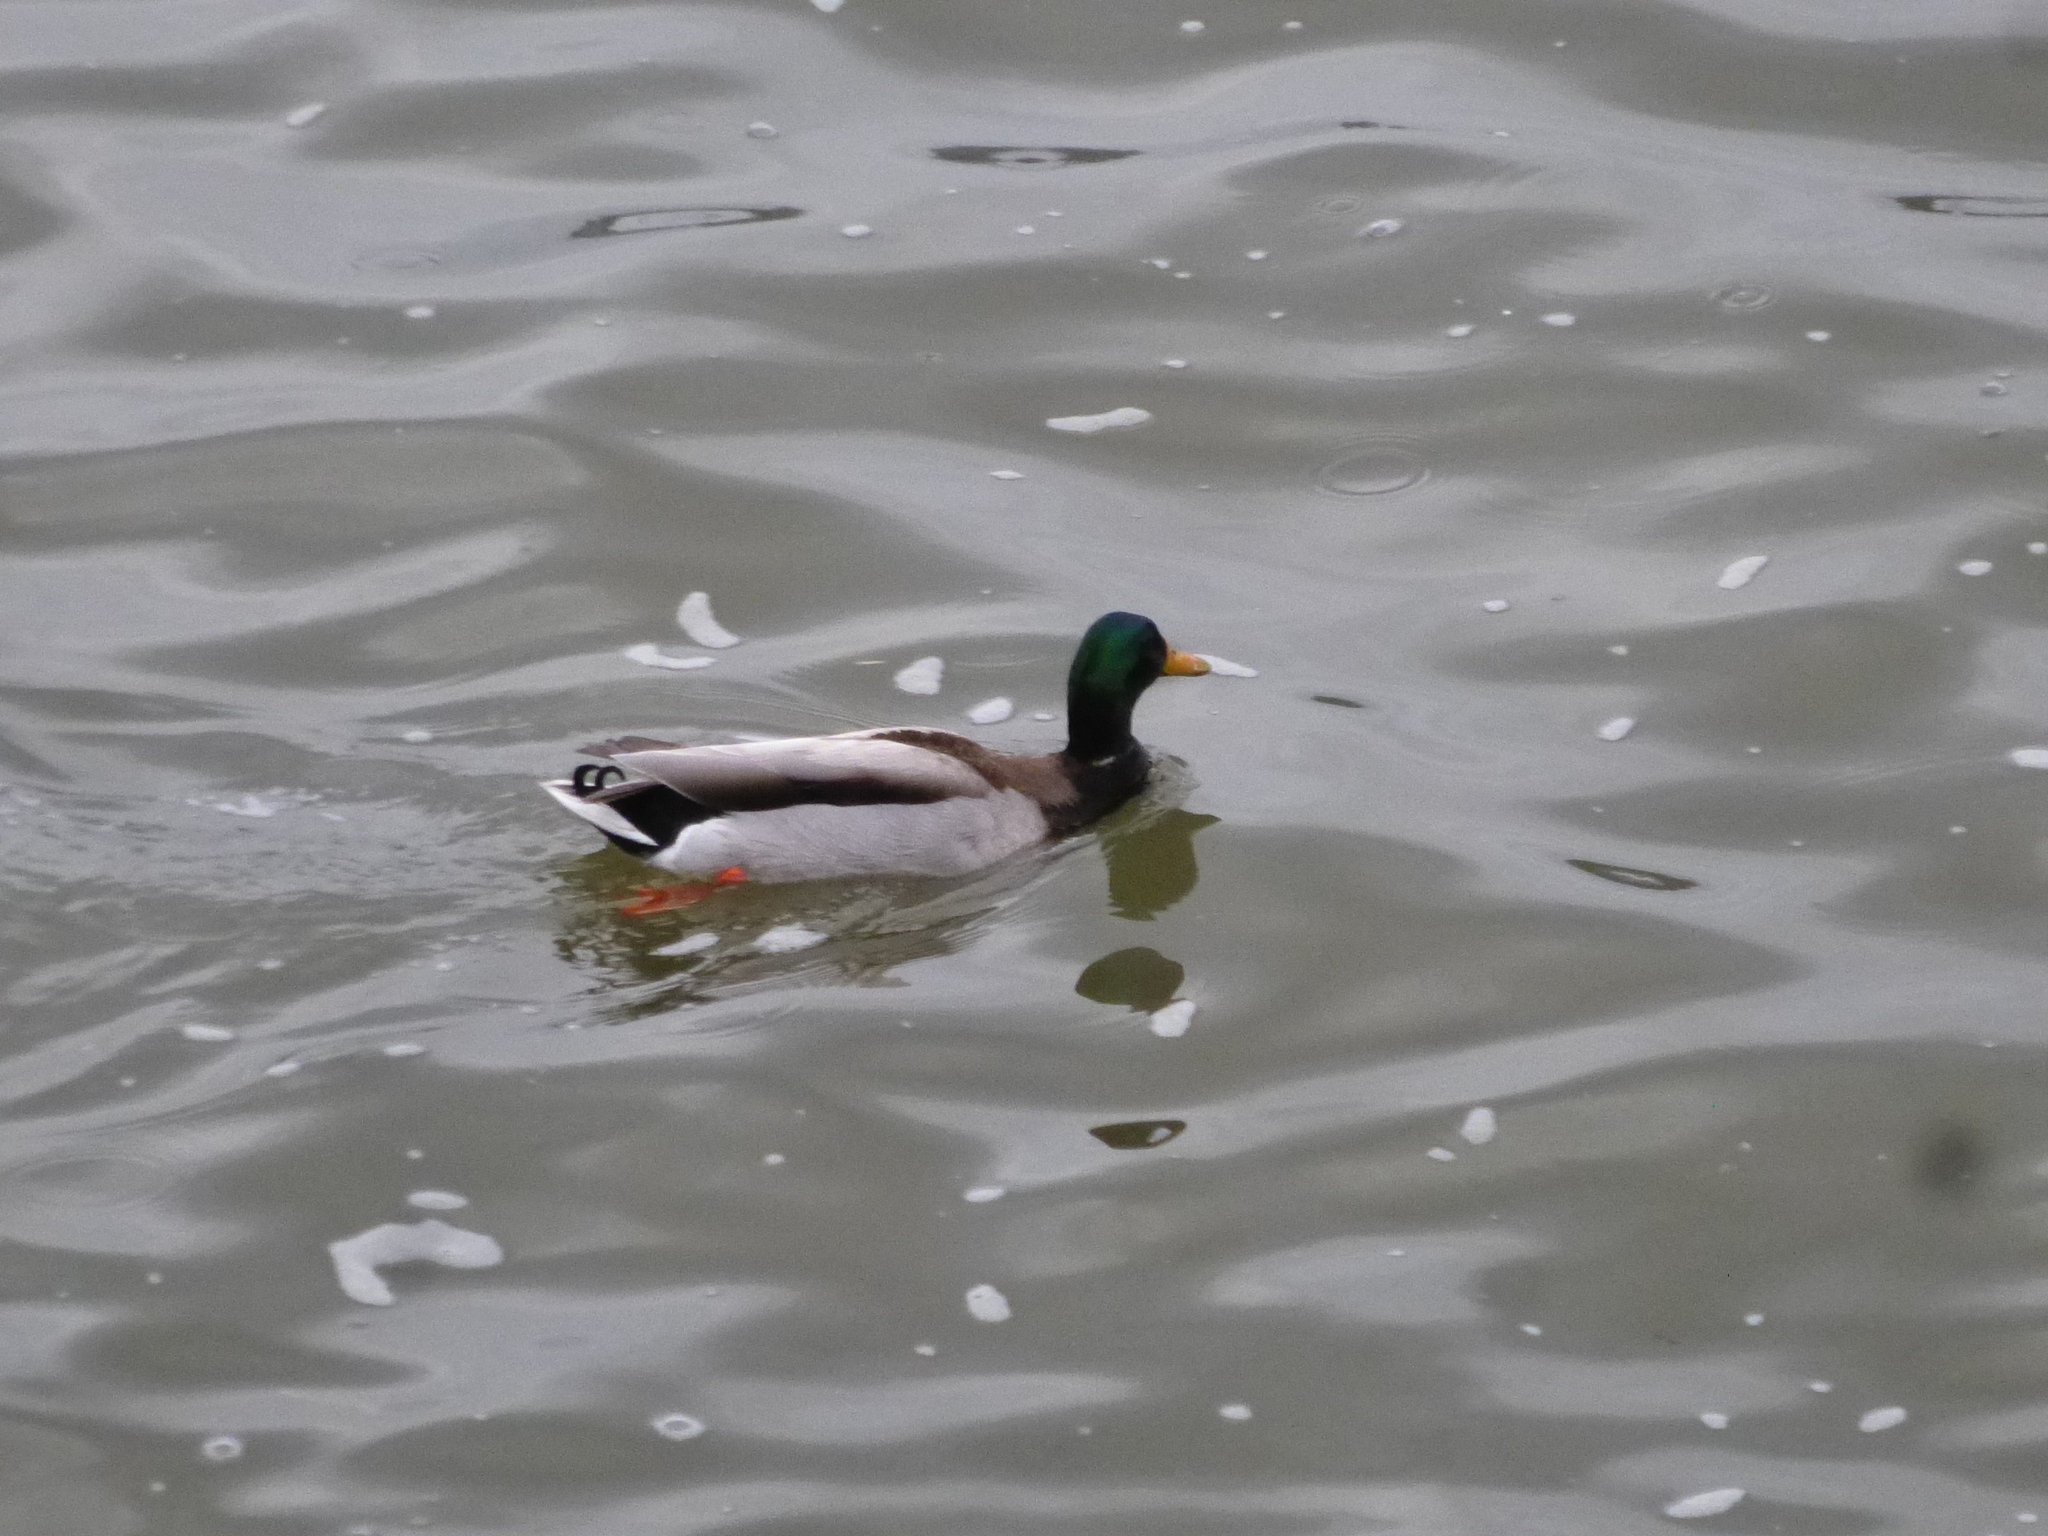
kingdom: Animalia
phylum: Chordata
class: Aves
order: Anseriformes
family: Anatidae
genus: Anas
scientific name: Anas platyrhynchos
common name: Mallard
